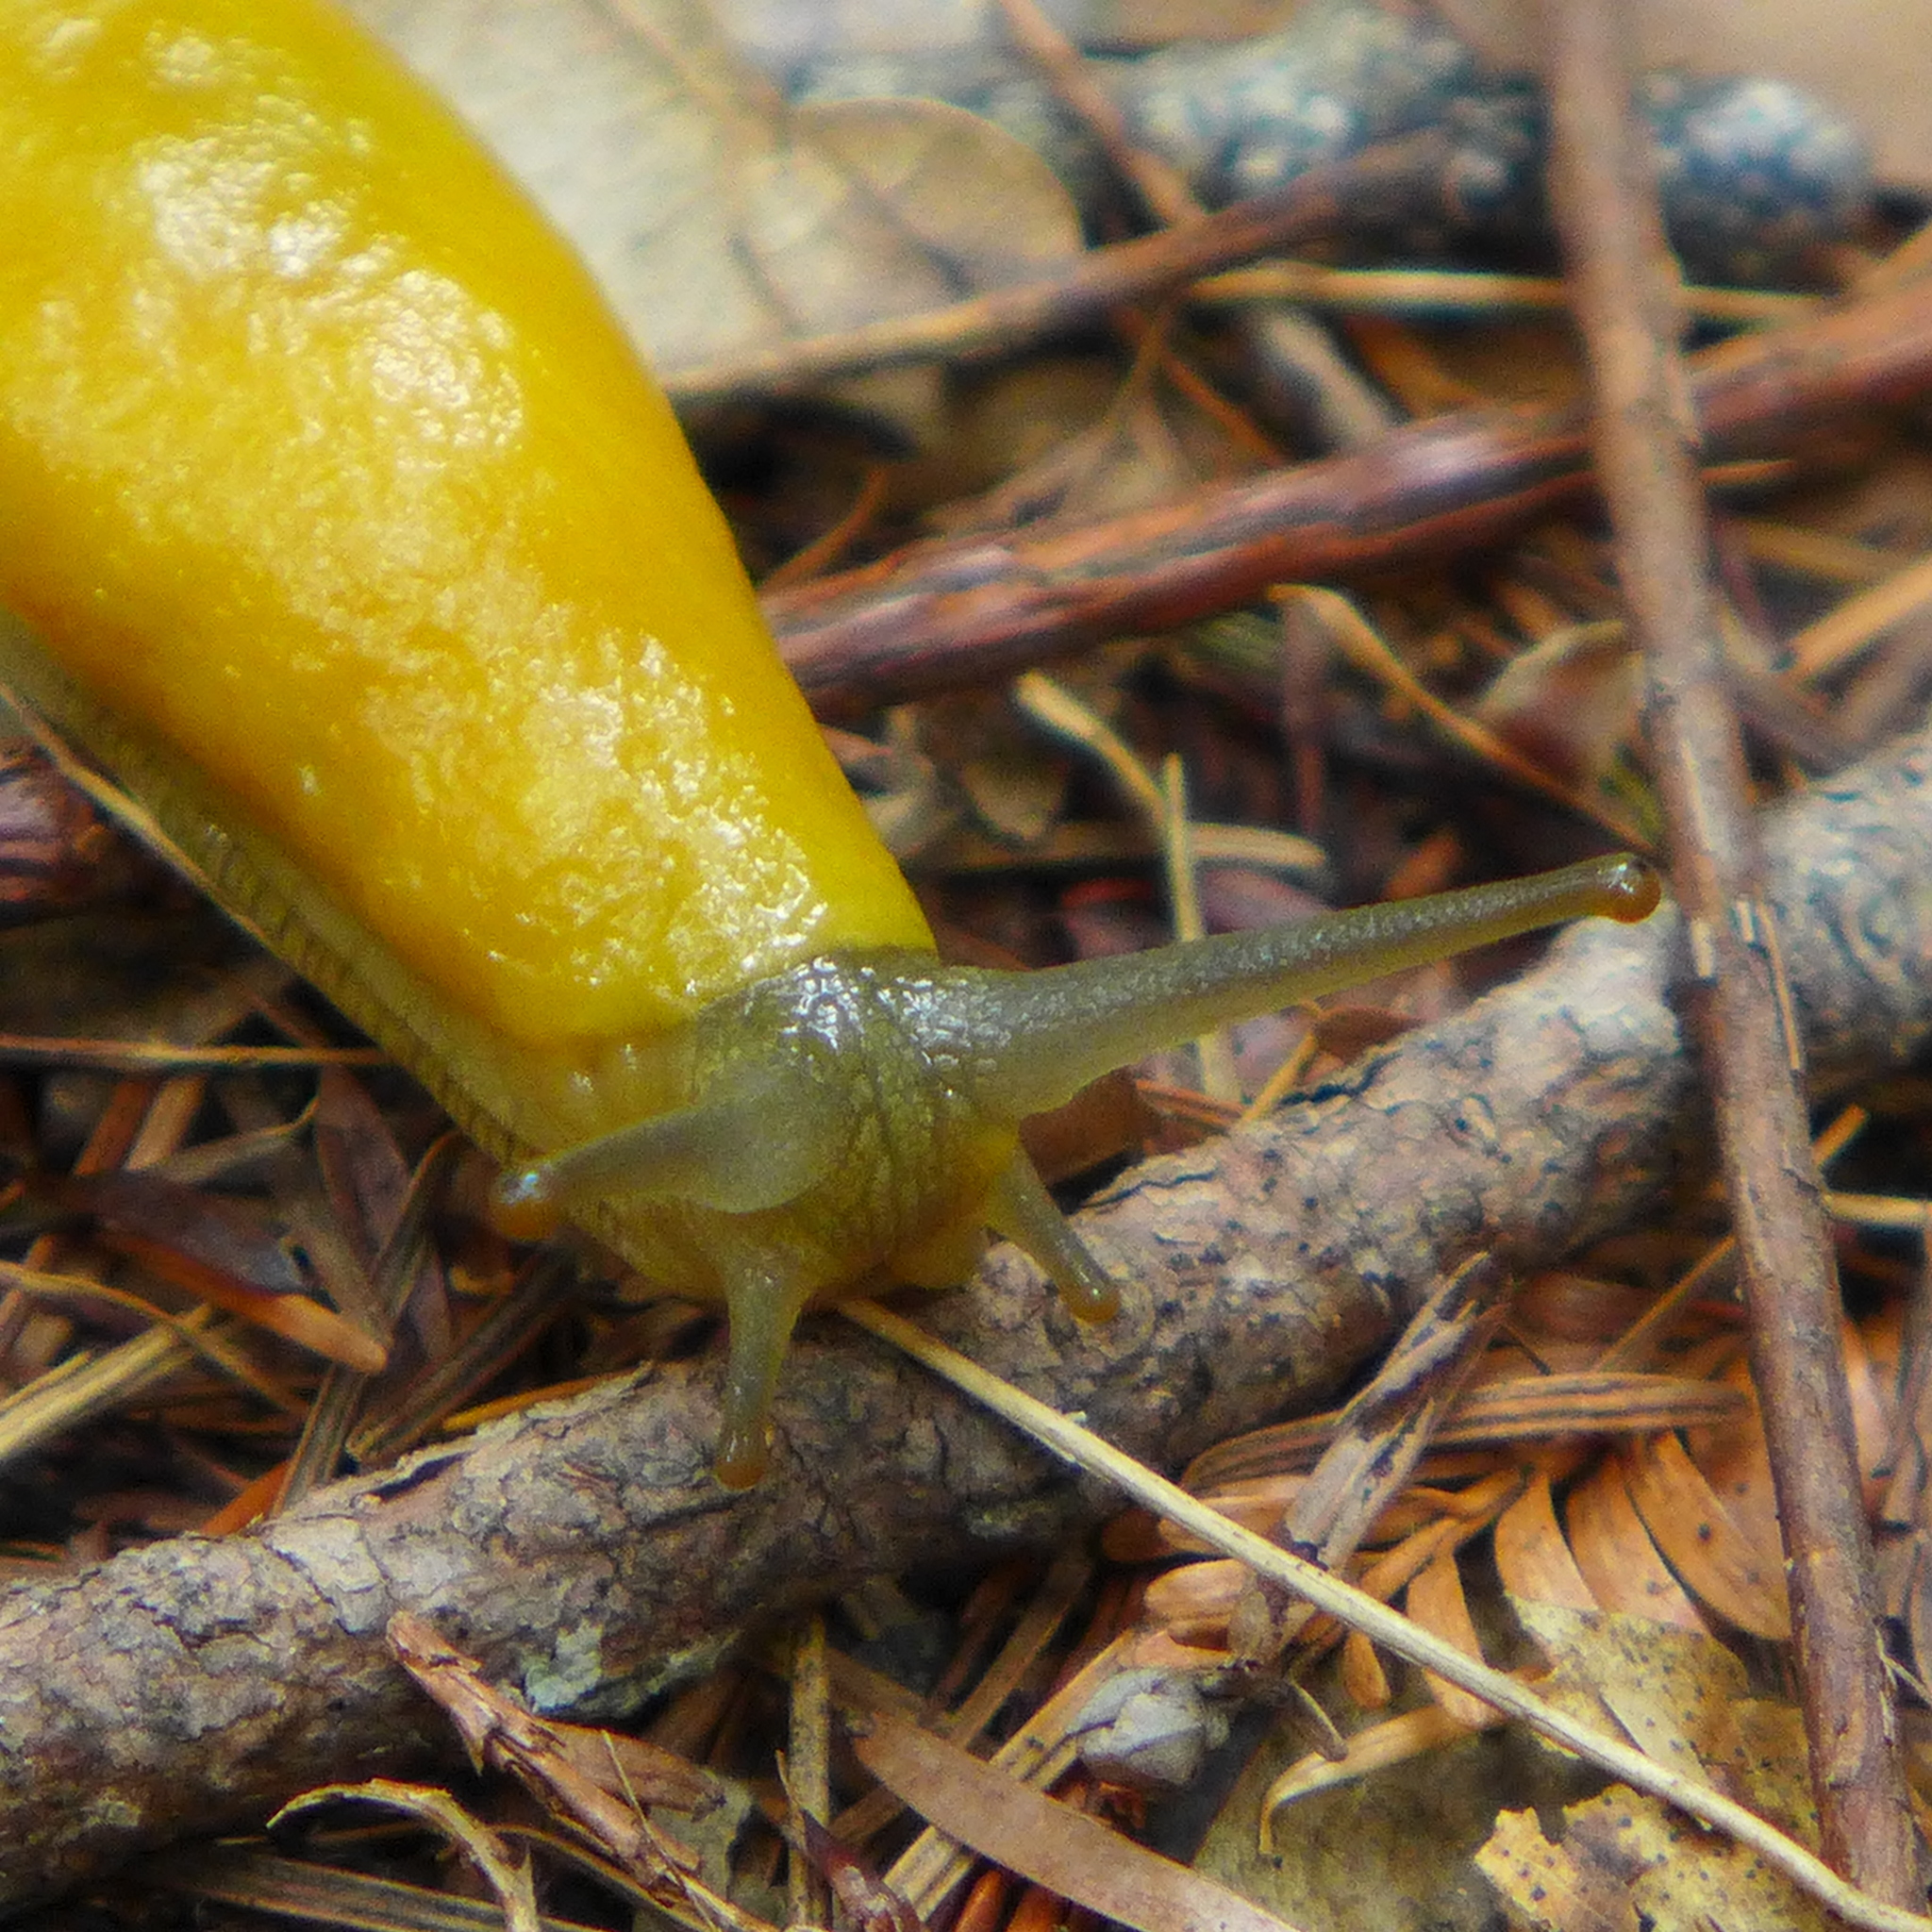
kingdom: Animalia
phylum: Mollusca
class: Gastropoda
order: Stylommatophora
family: Ariolimacidae
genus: Ariolimax
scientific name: Ariolimax californicus
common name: California banana slug
